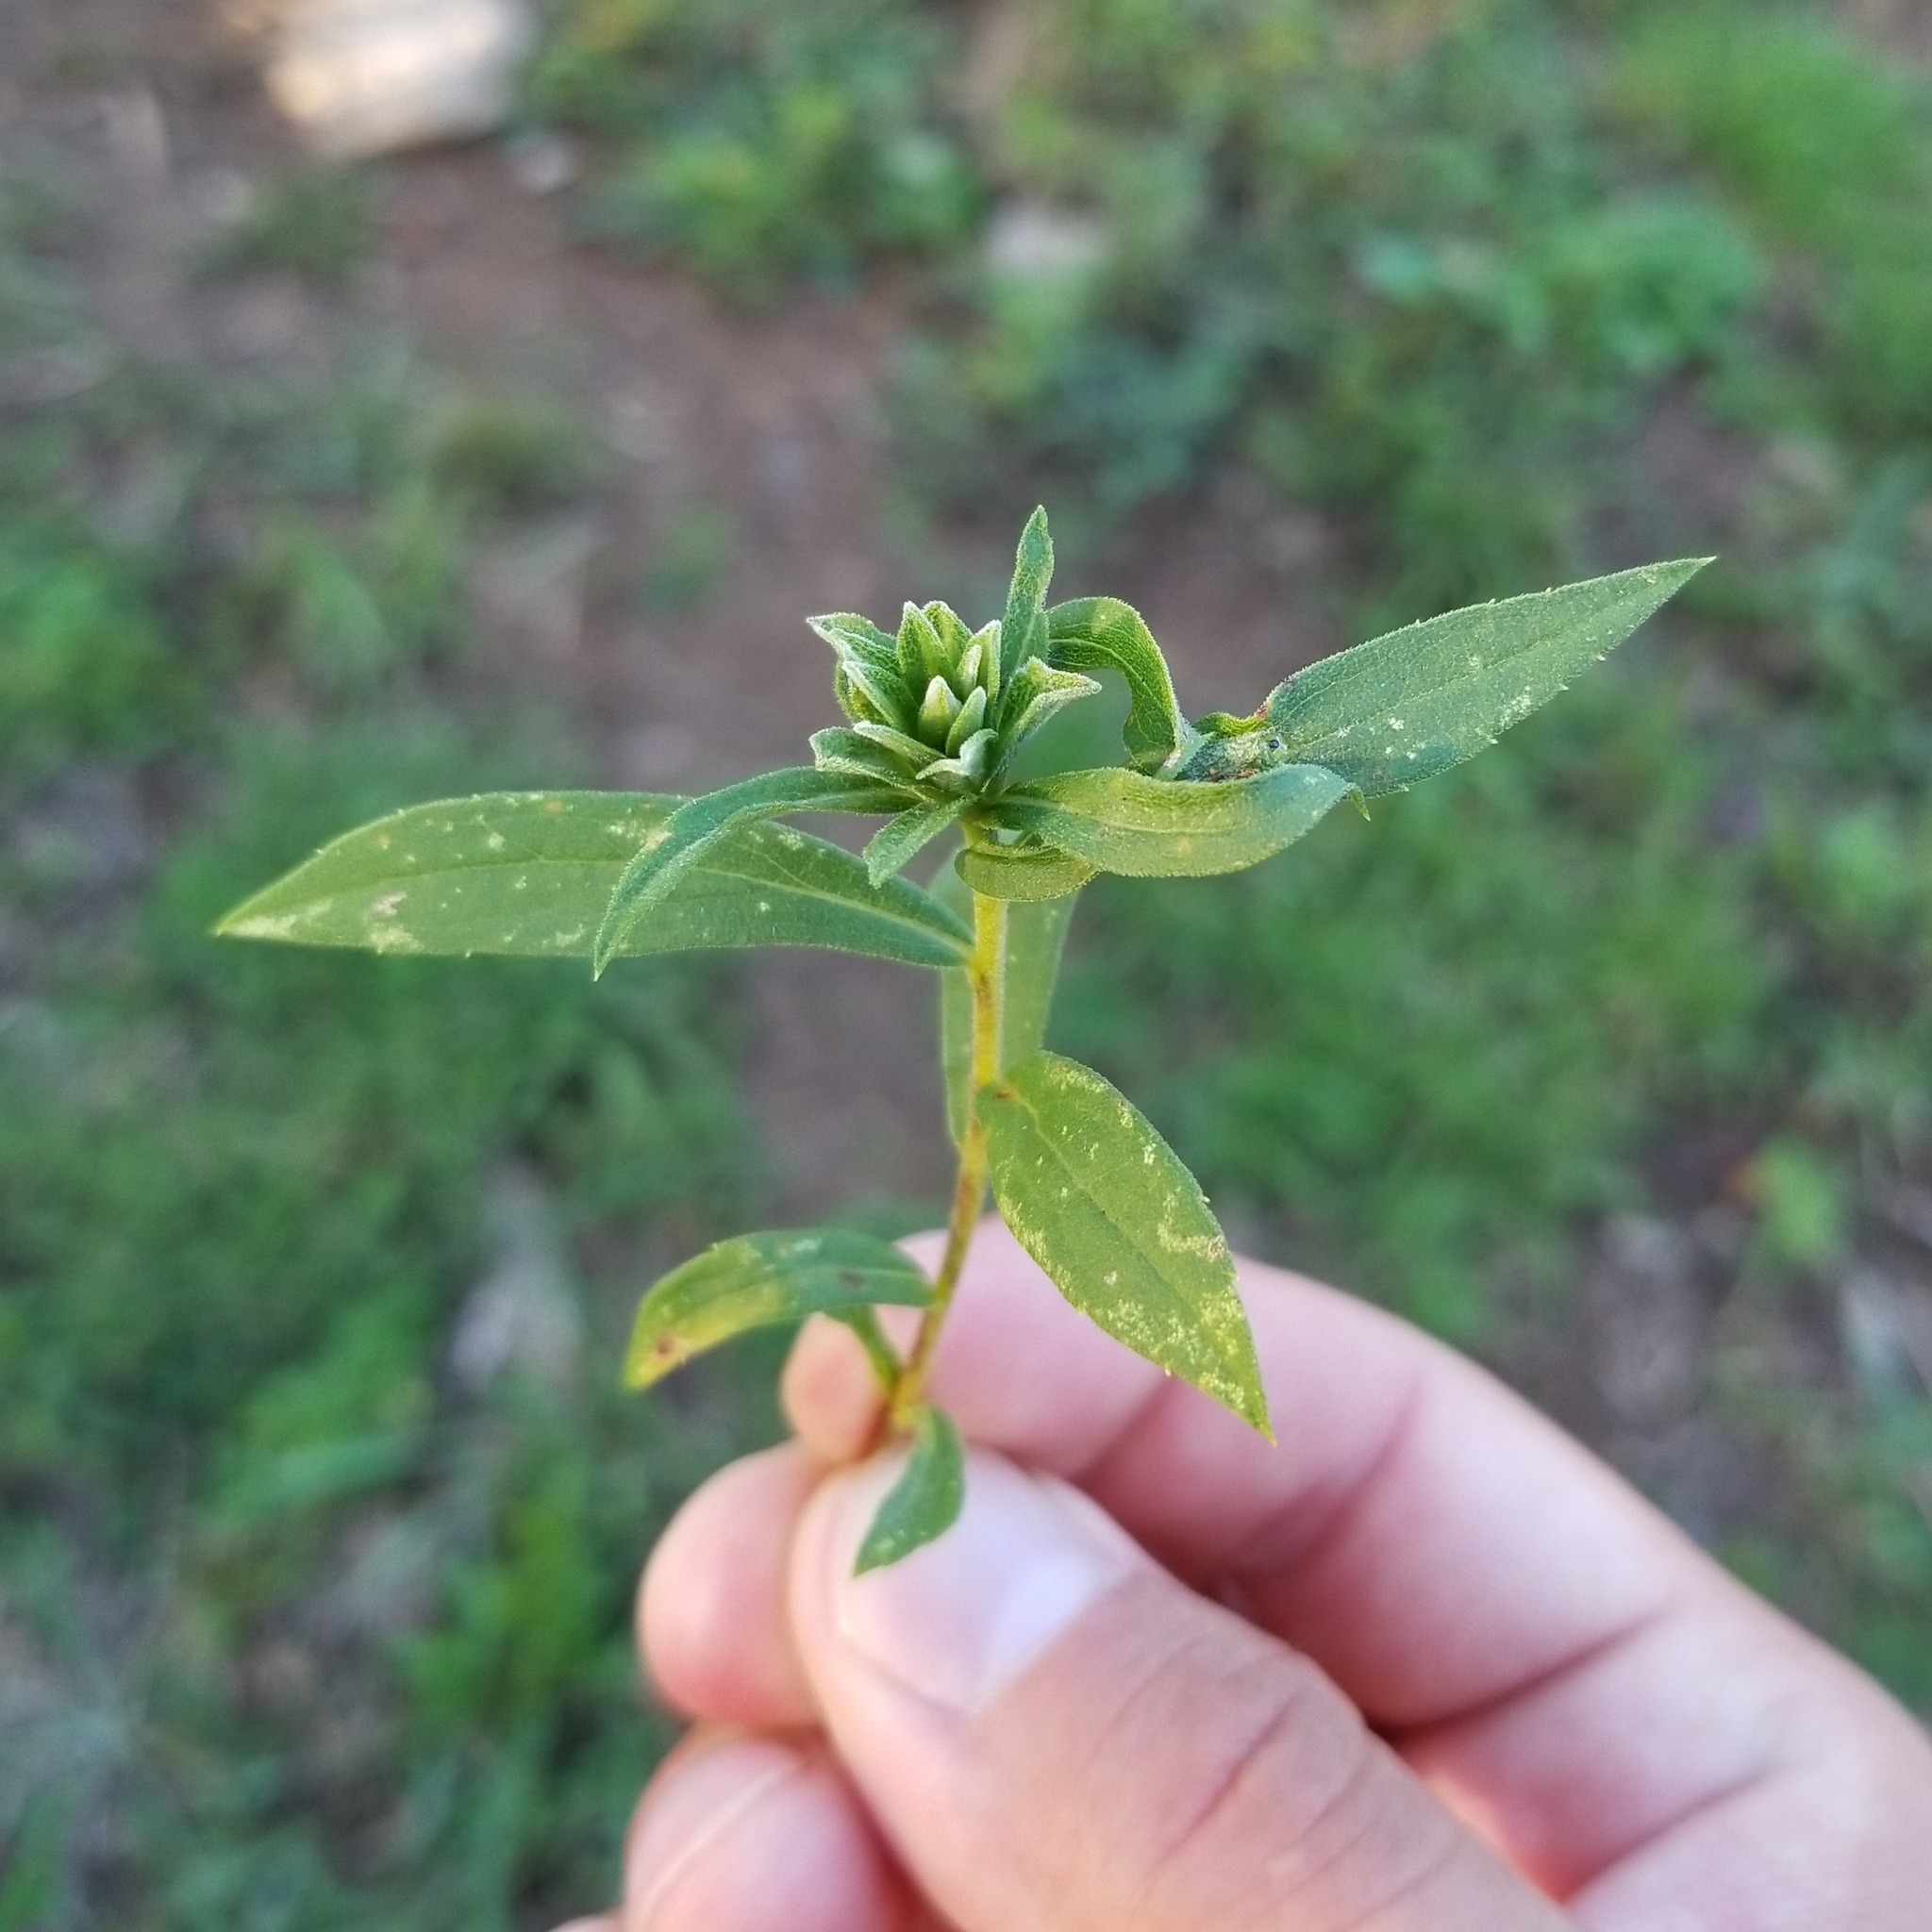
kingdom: Animalia
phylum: Arthropoda
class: Insecta
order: Diptera
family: Cecidomyiidae
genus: Asphondylia
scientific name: Asphondylia solidaginis
